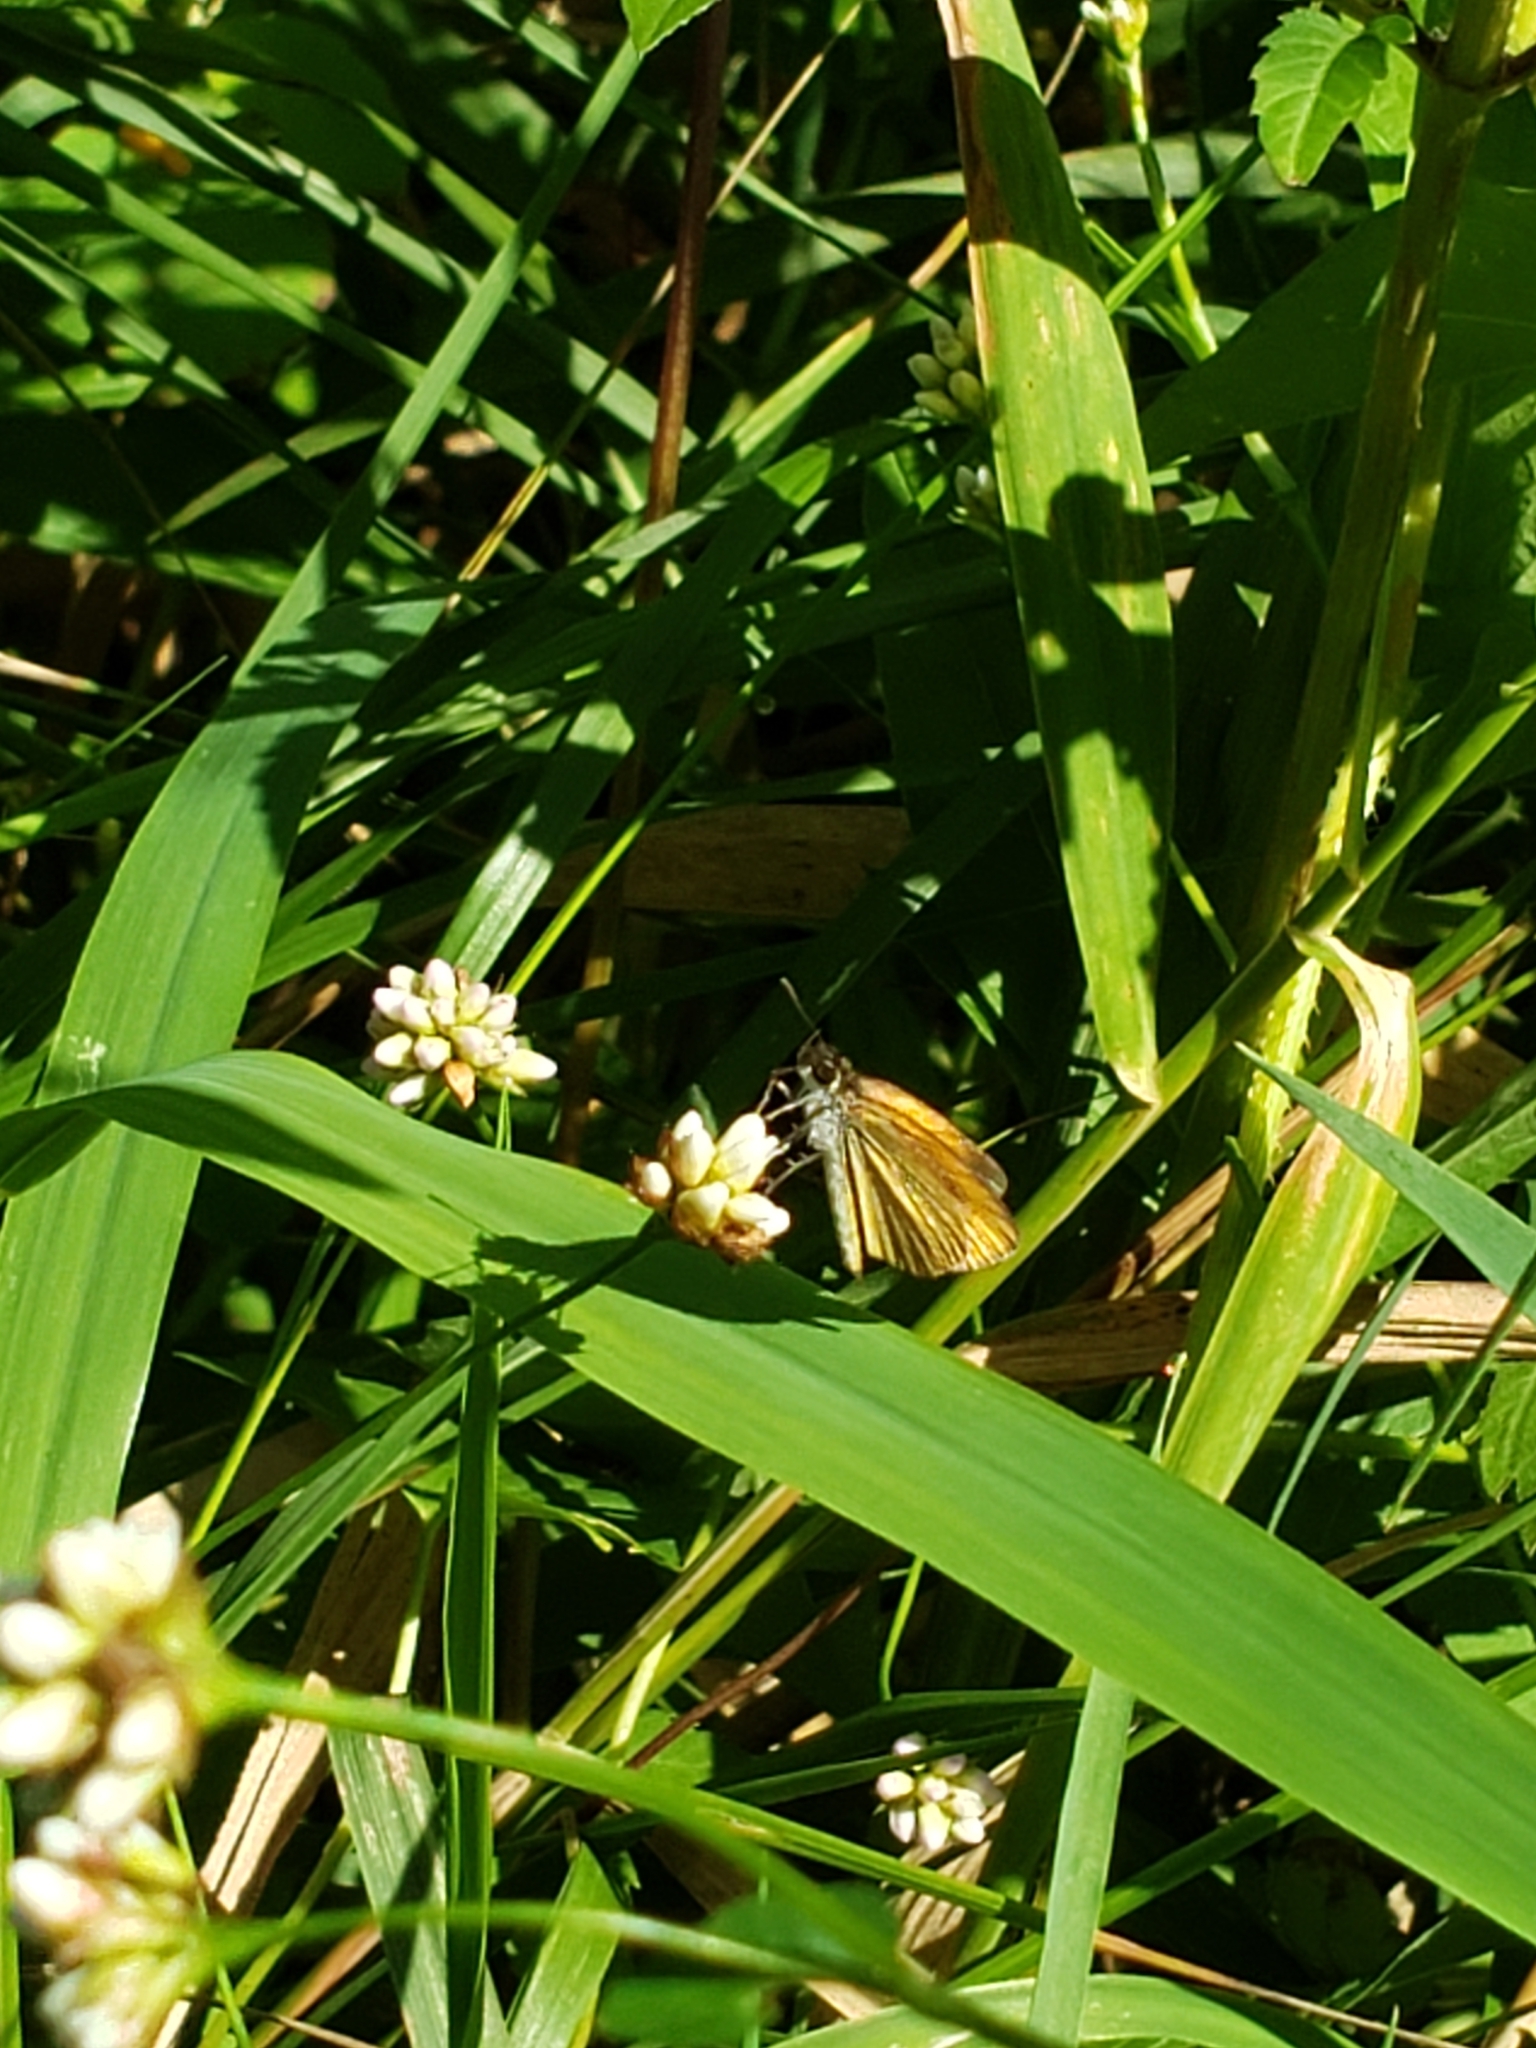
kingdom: Animalia
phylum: Arthropoda
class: Insecta
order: Lepidoptera
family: Hesperiidae
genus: Ancyloxypha
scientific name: Ancyloxypha numitor
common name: Least skipper
